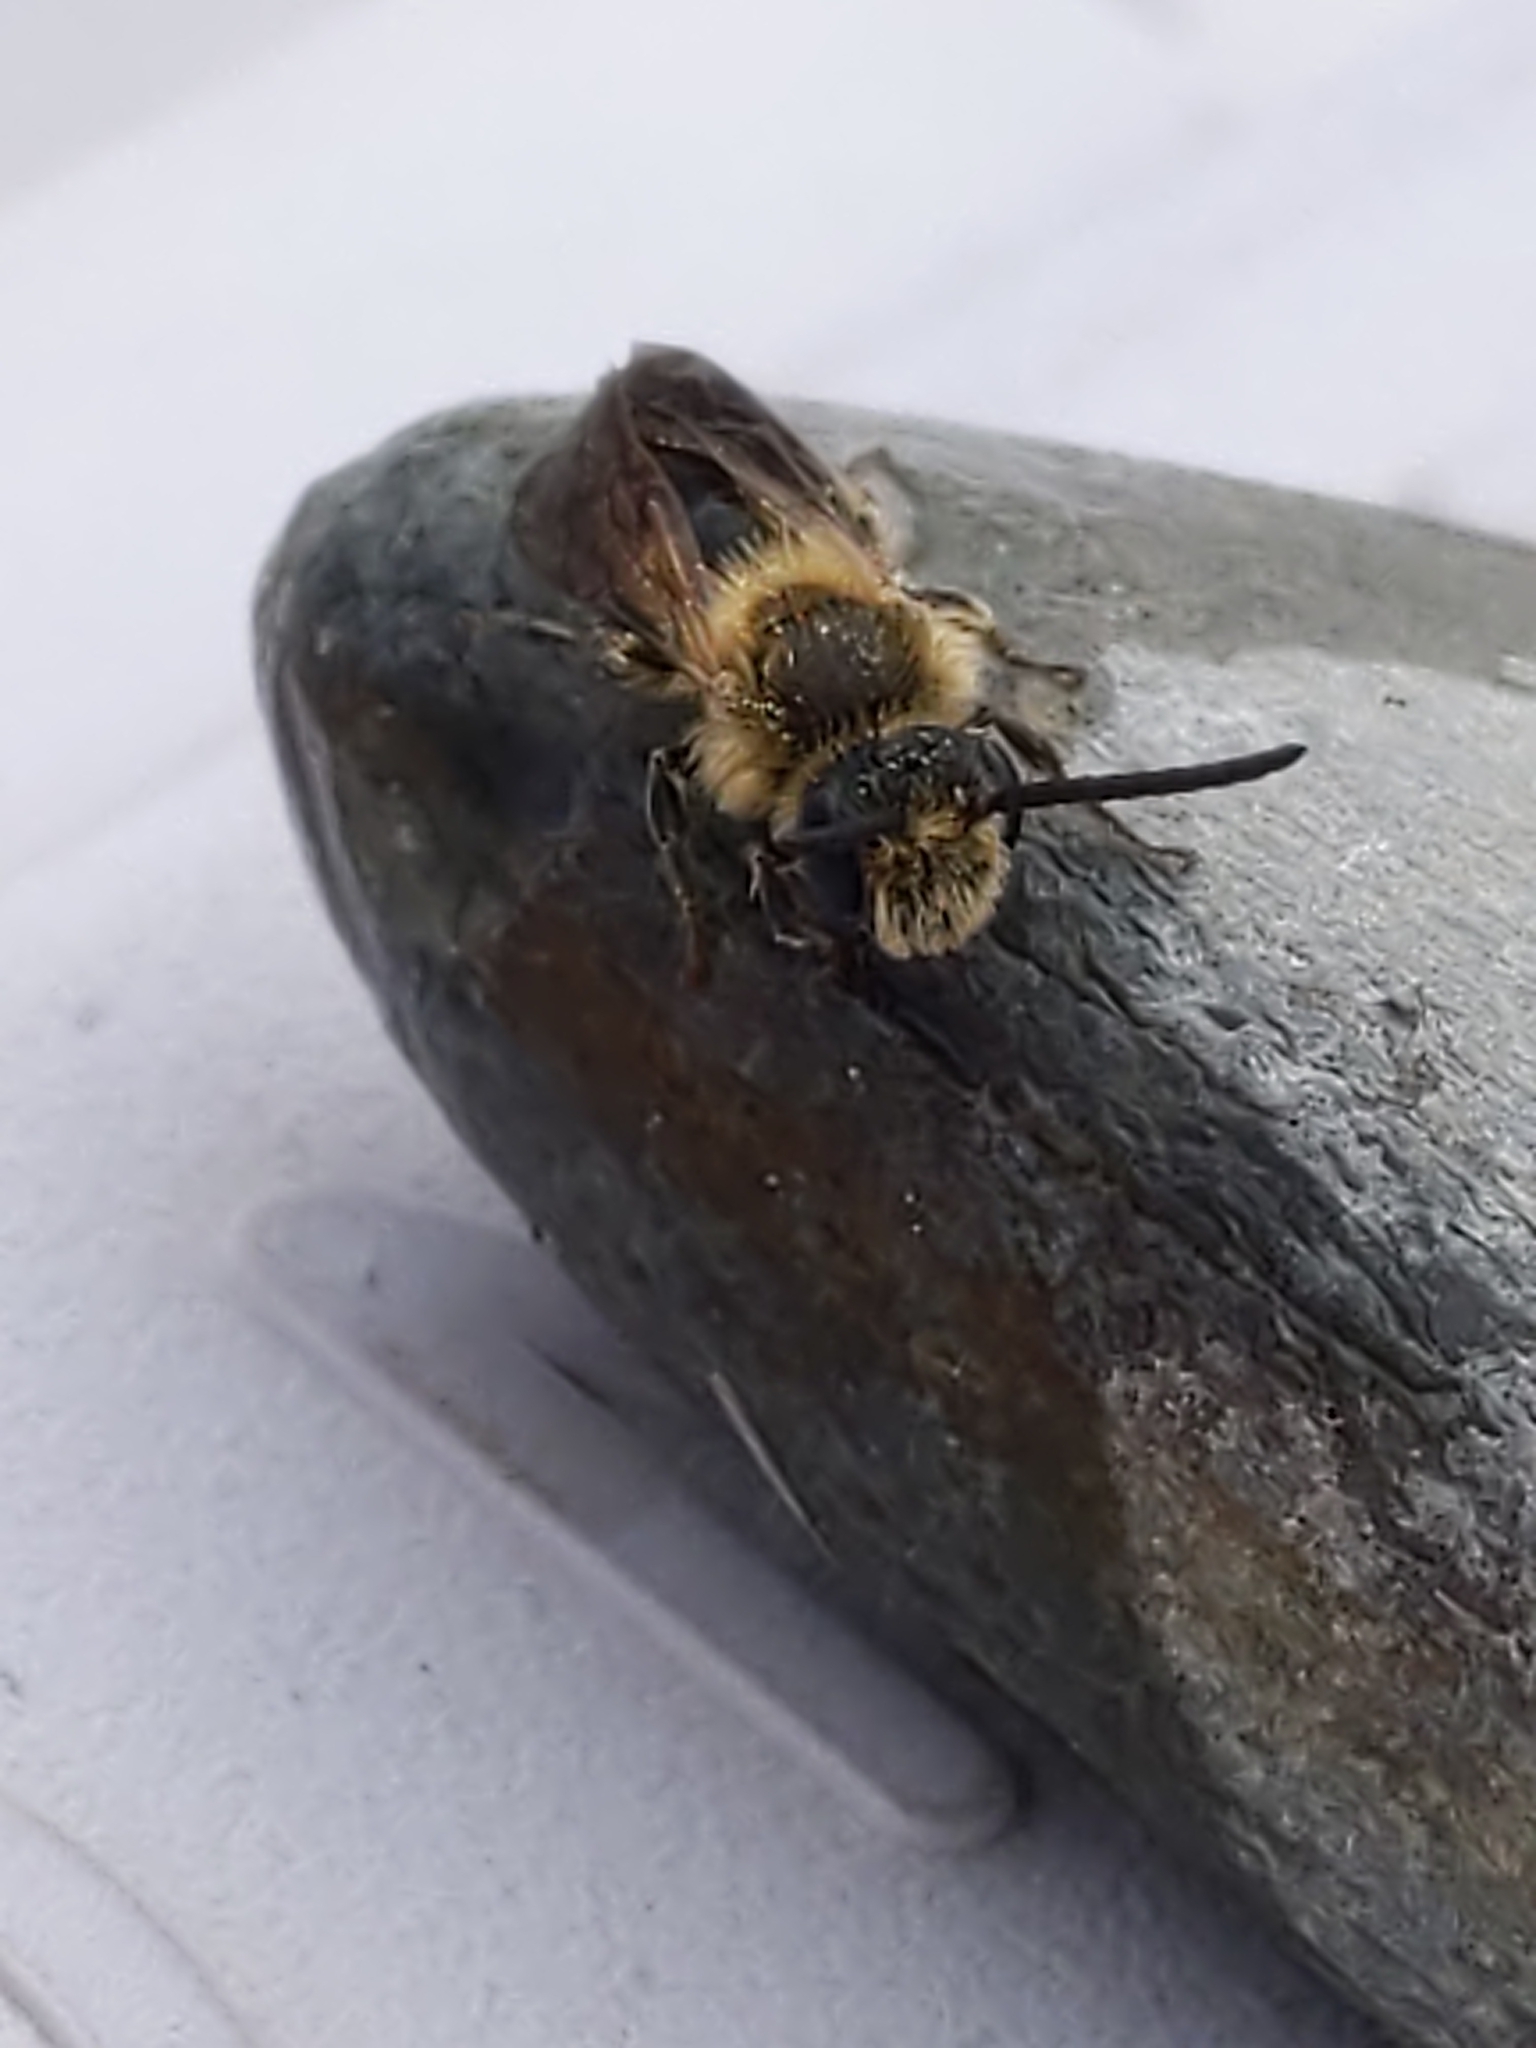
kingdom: Animalia
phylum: Arthropoda
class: Insecta
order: Hymenoptera
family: Andrenidae
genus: Andrena
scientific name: Andrena
